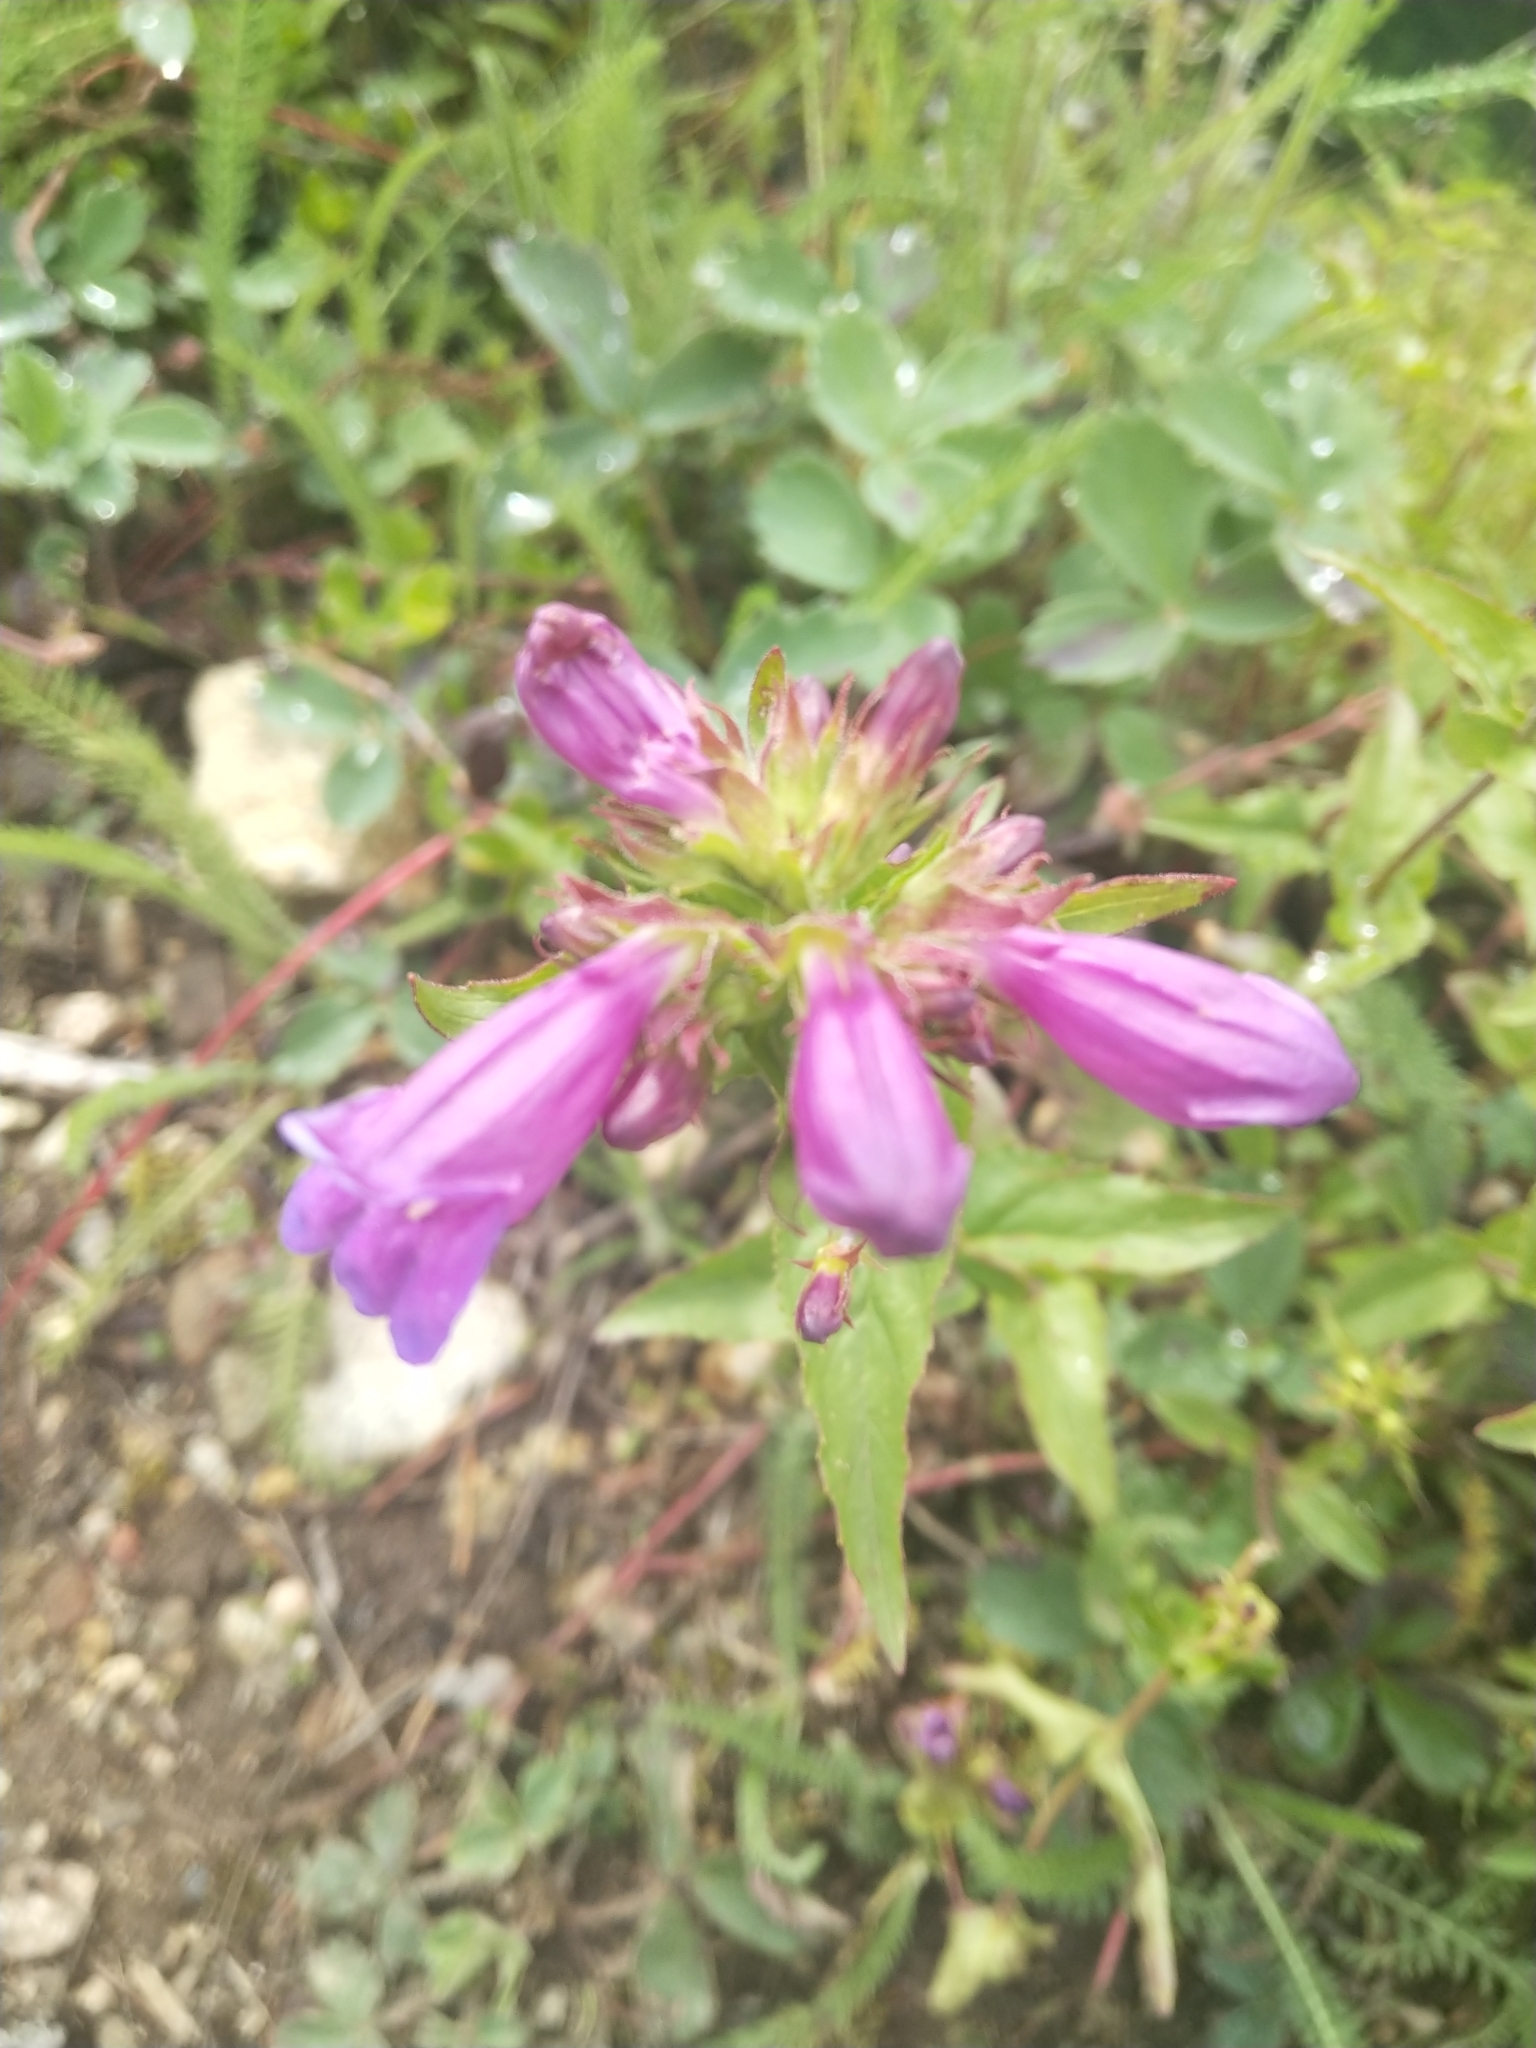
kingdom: Plantae
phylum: Tracheophyta
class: Magnoliopsida
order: Lamiales
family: Plantaginaceae
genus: Penstemon
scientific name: Penstemon serrulatus
